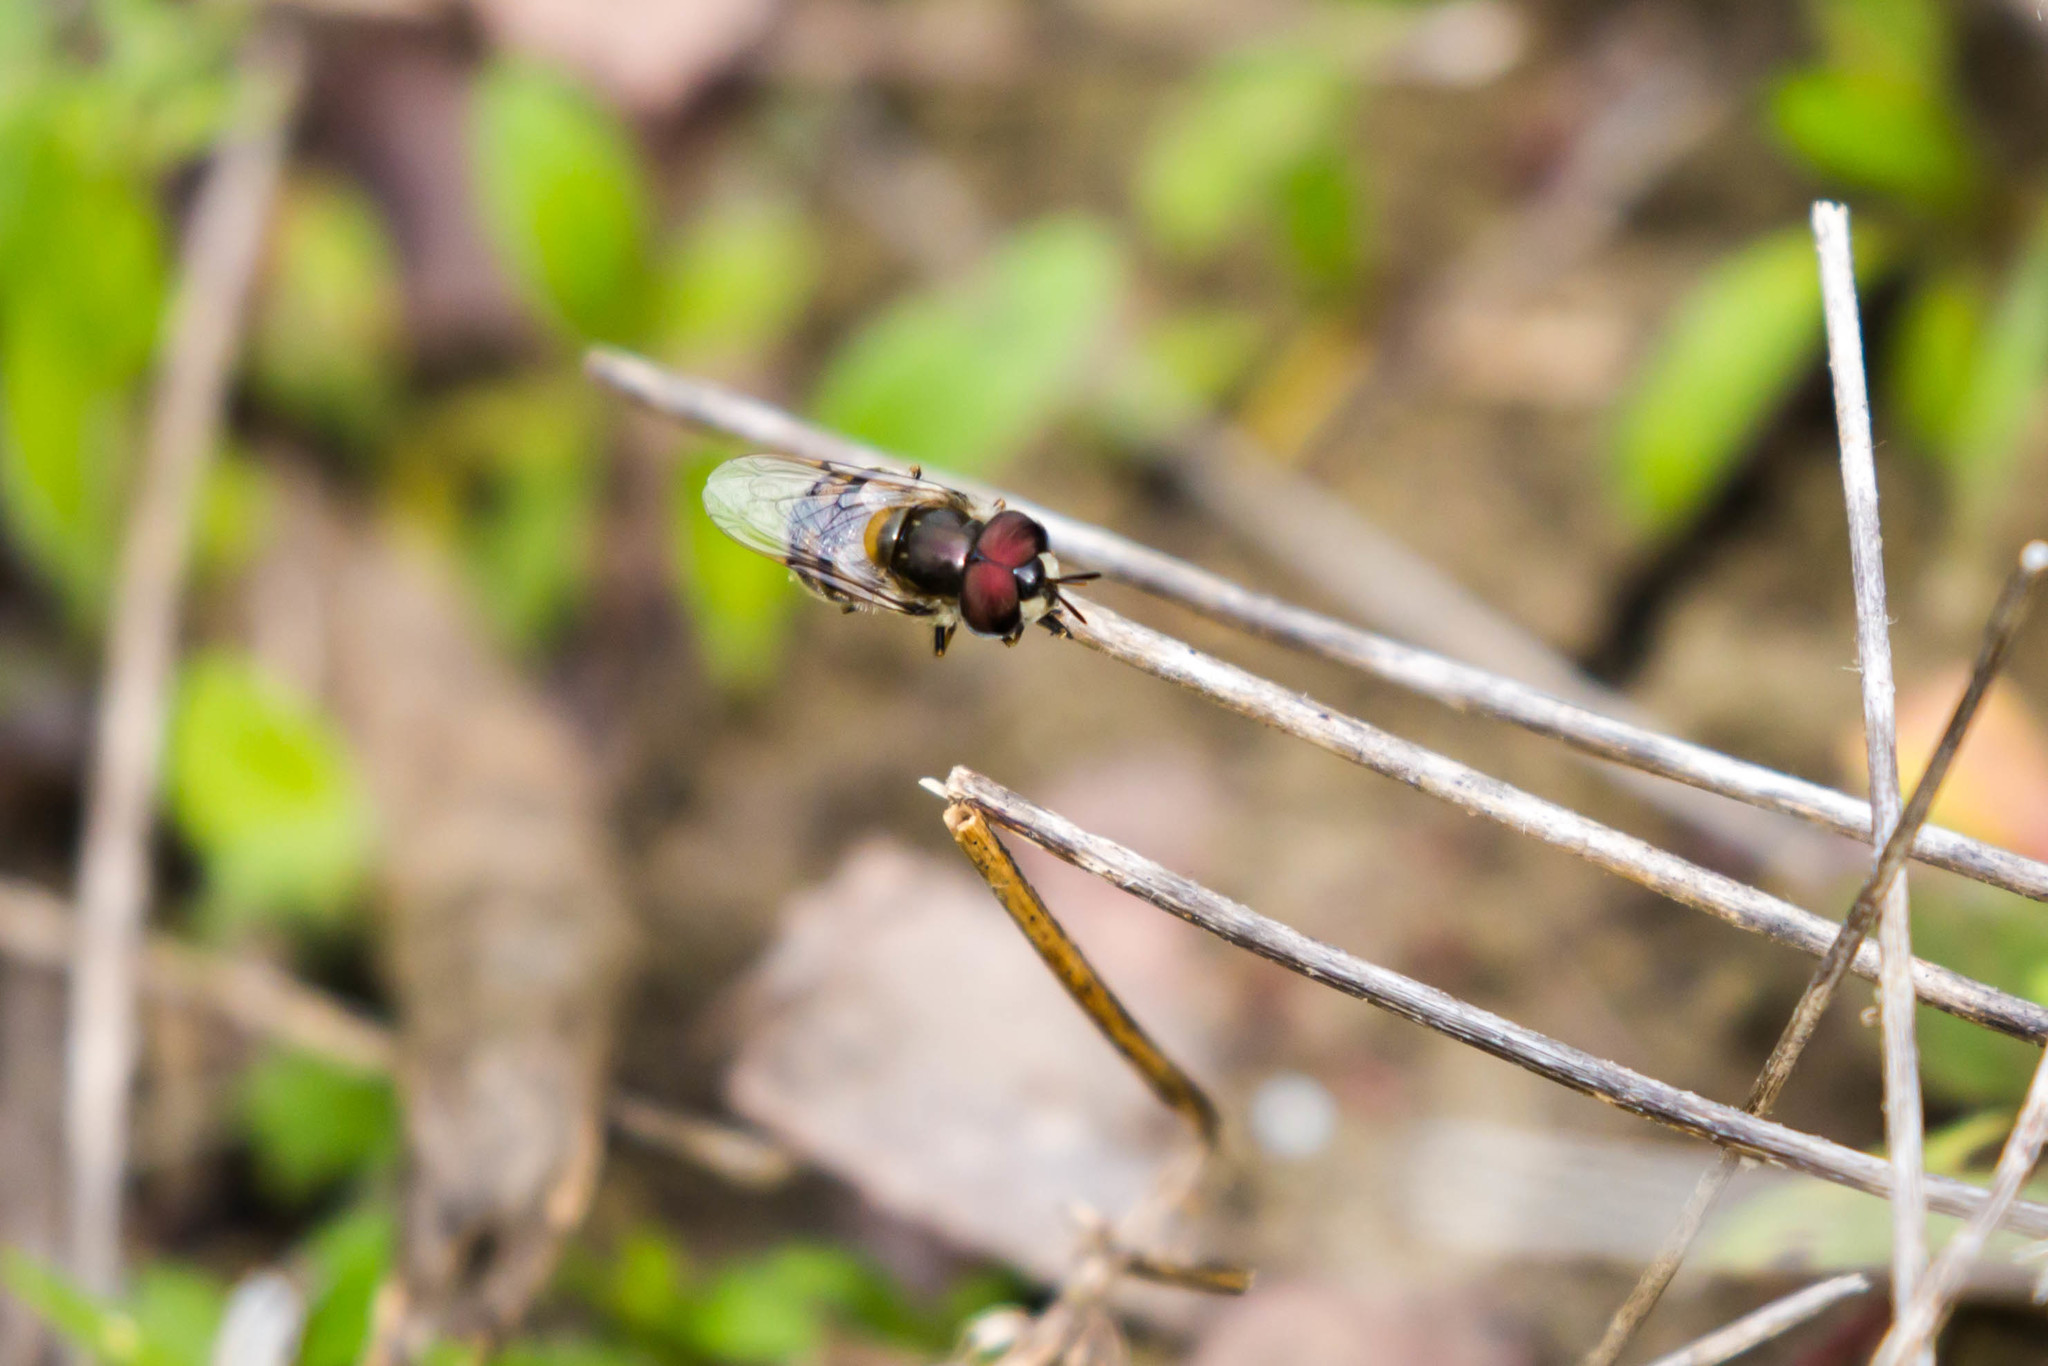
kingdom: Animalia
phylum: Arthropoda
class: Insecta
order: Diptera
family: Syrphidae
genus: Copestylum
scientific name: Copestylum marginatum
